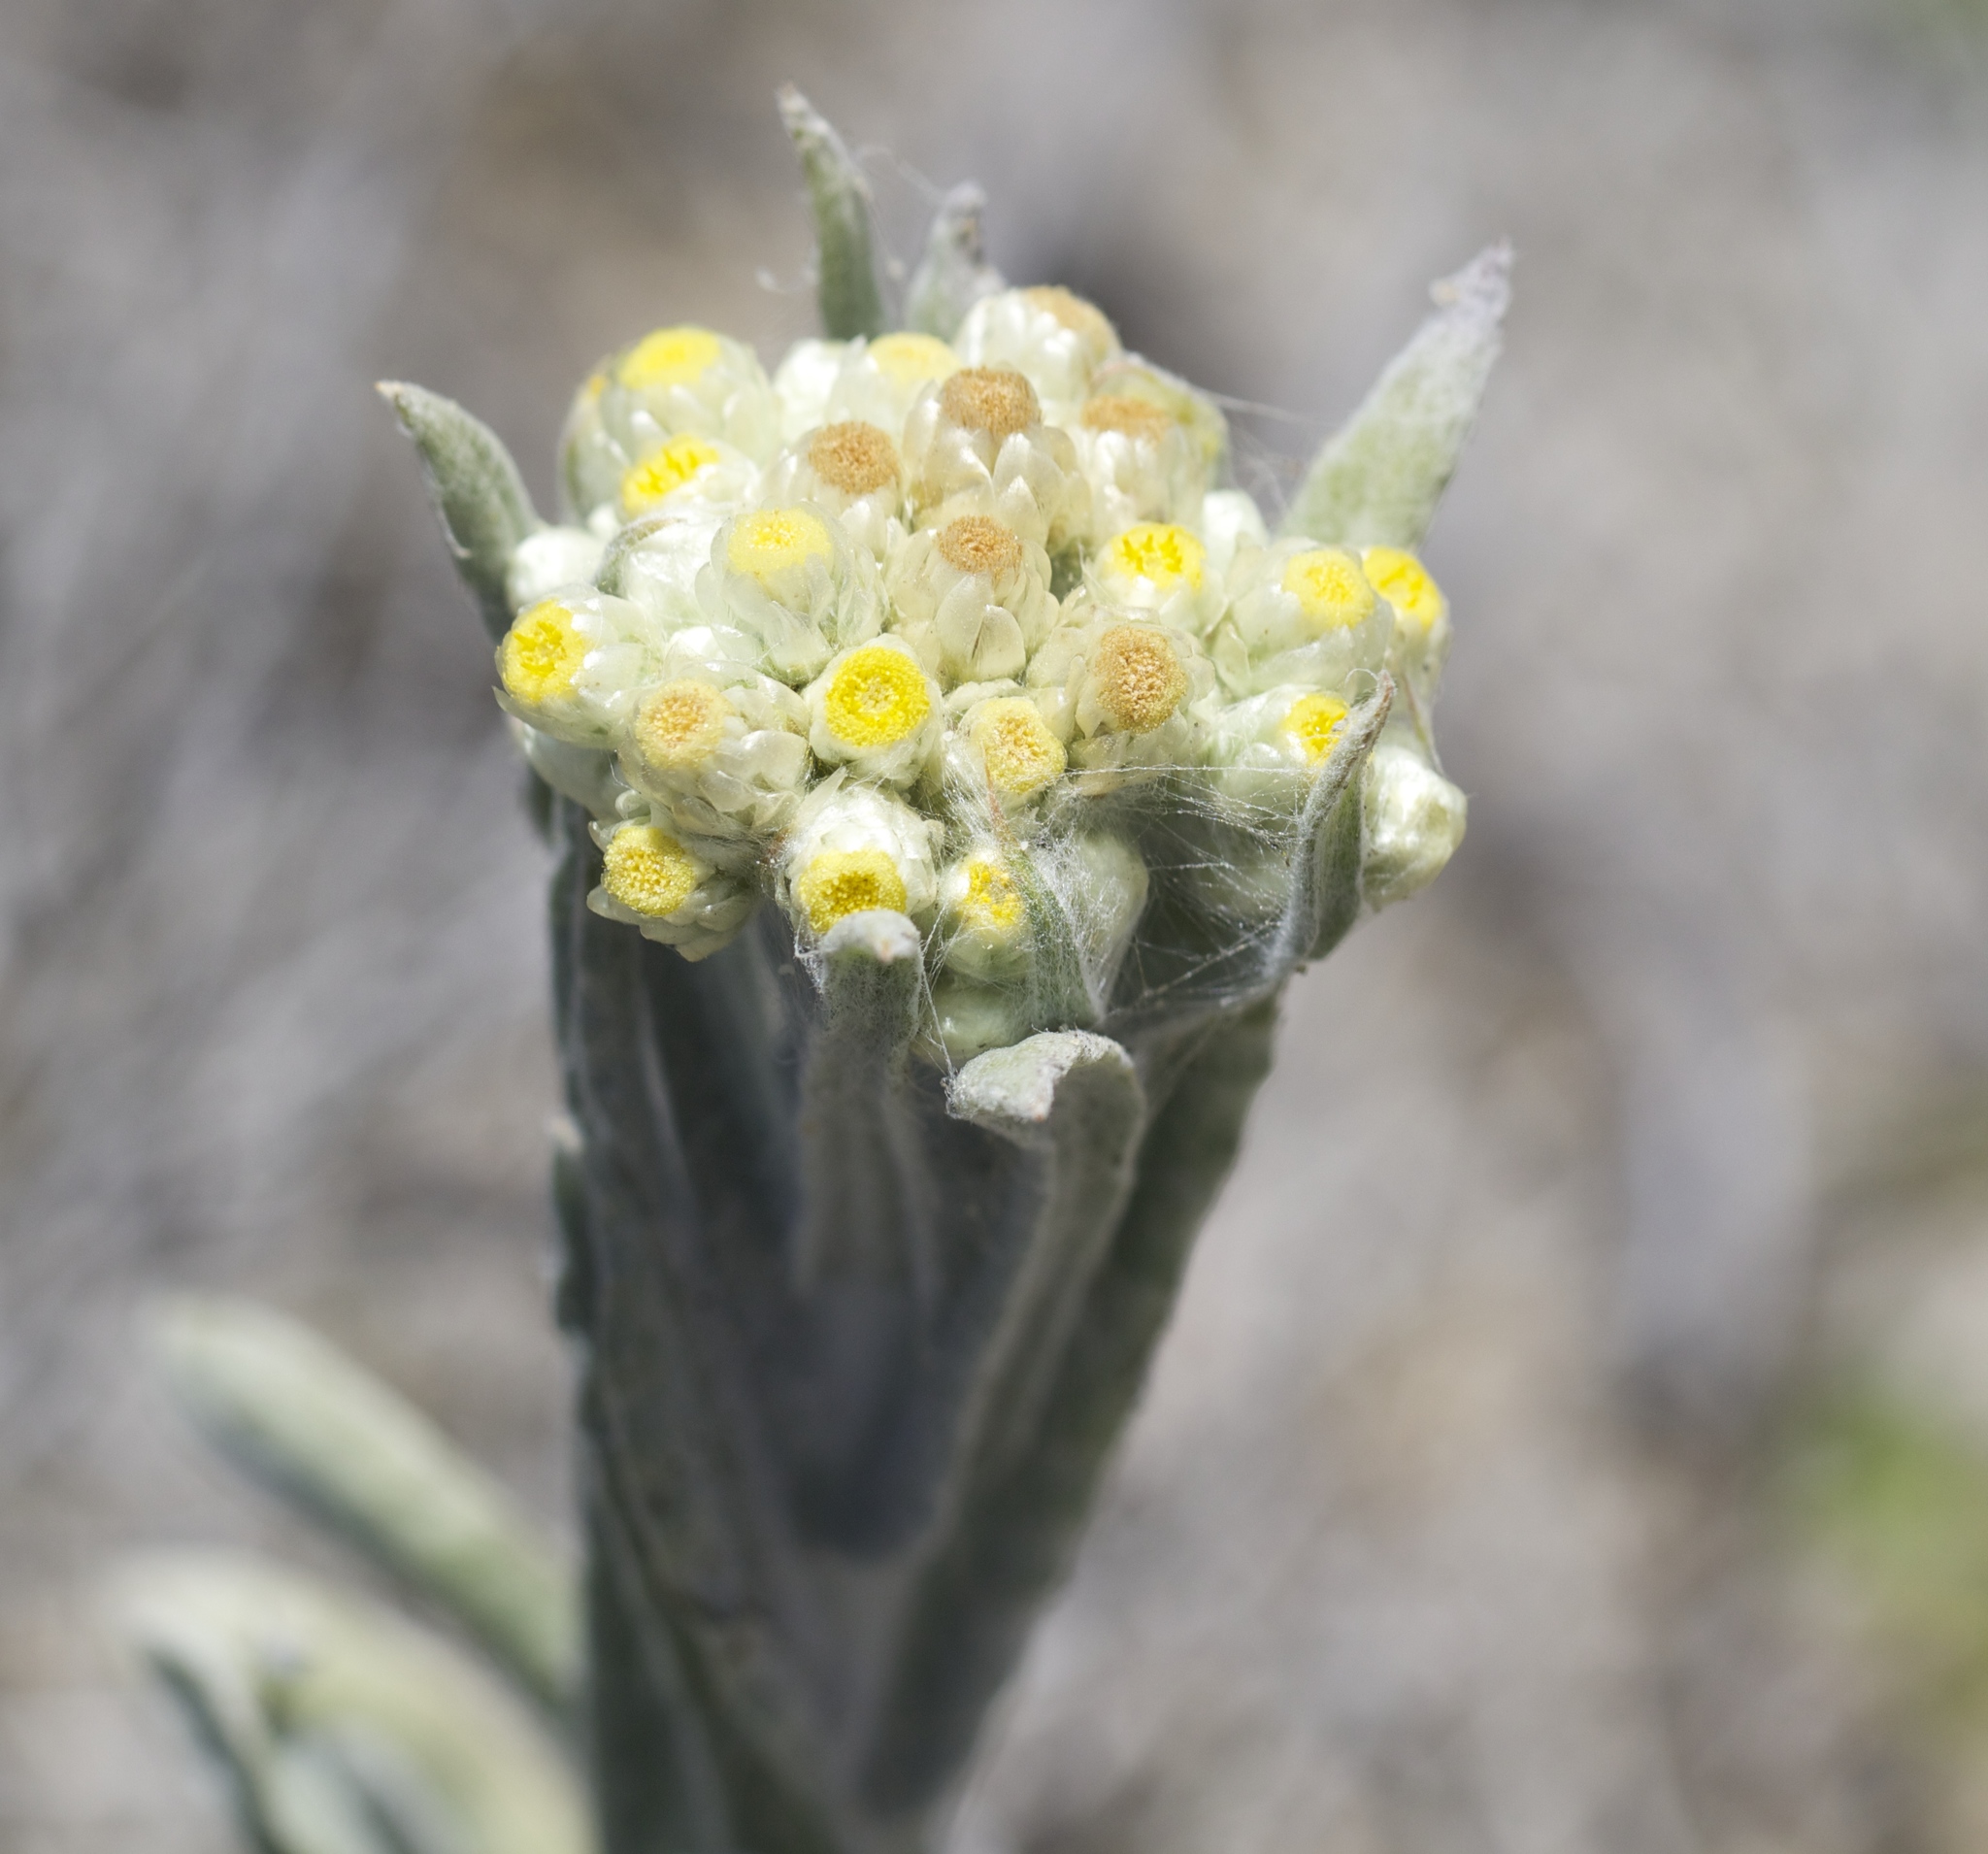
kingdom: Plantae
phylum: Tracheophyta
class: Magnoliopsida
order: Asterales
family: Asteraceae
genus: Pseudognaphalium
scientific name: Pseudognaphalium stramineum
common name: Cotton-batting-plant
